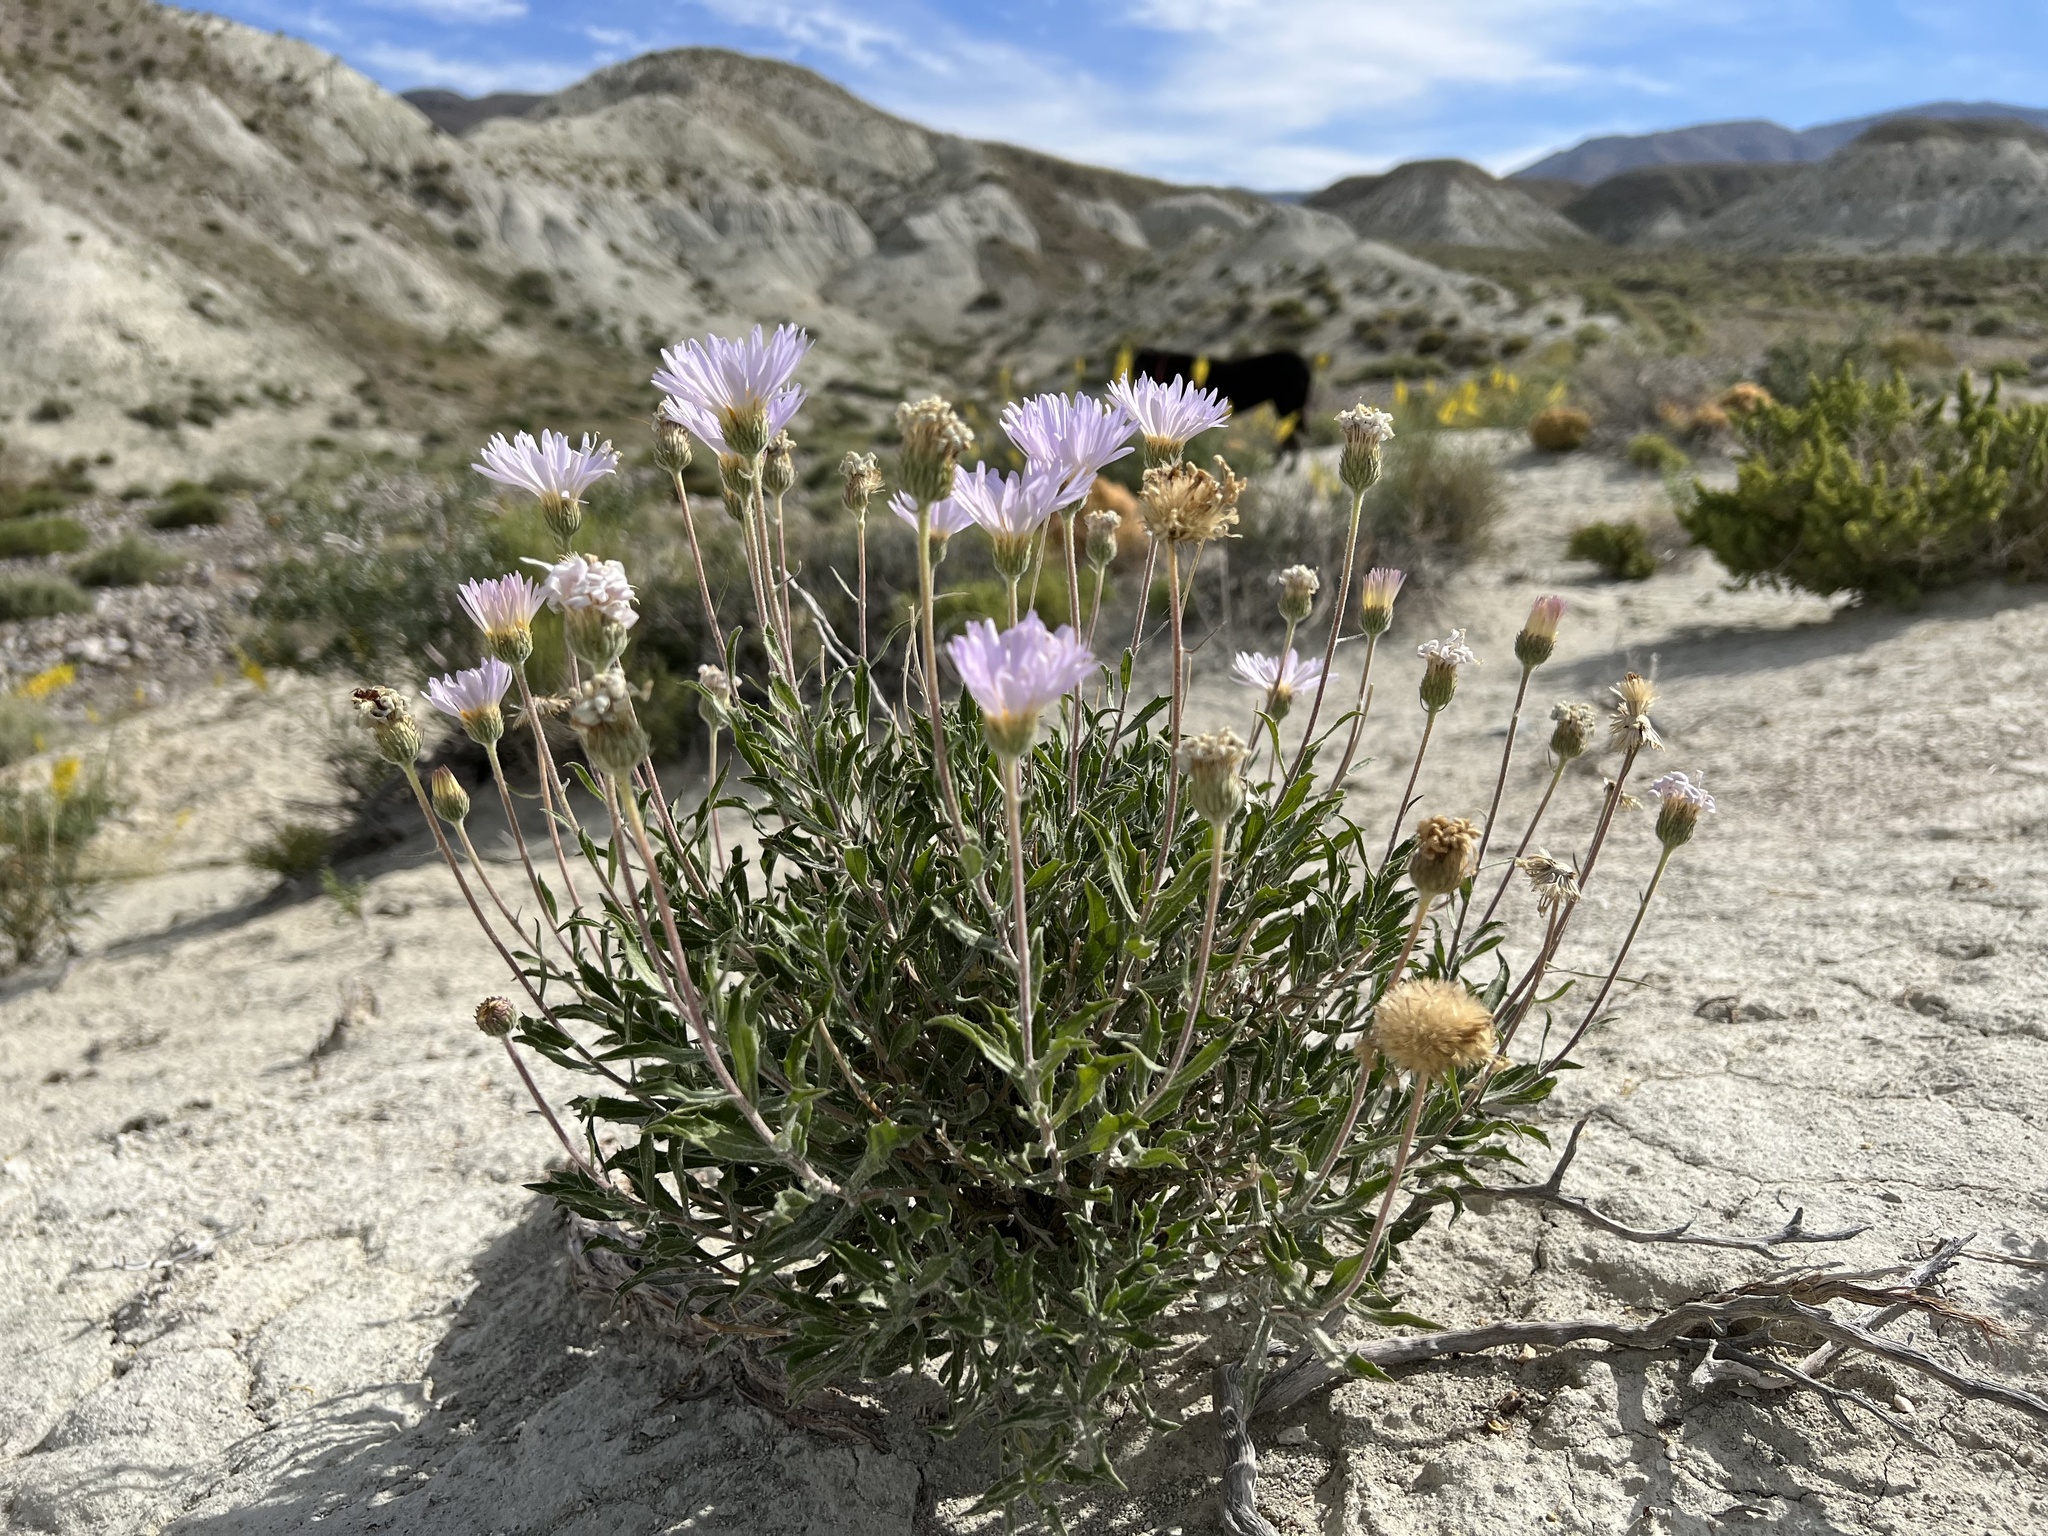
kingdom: Plantae
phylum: Tracheophyta
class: Magnoliopsida
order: Asterales
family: Asteraceae
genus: Xylorhiza
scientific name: Xylorhiza tortifolia
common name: Hurt-leaf woody-aster
